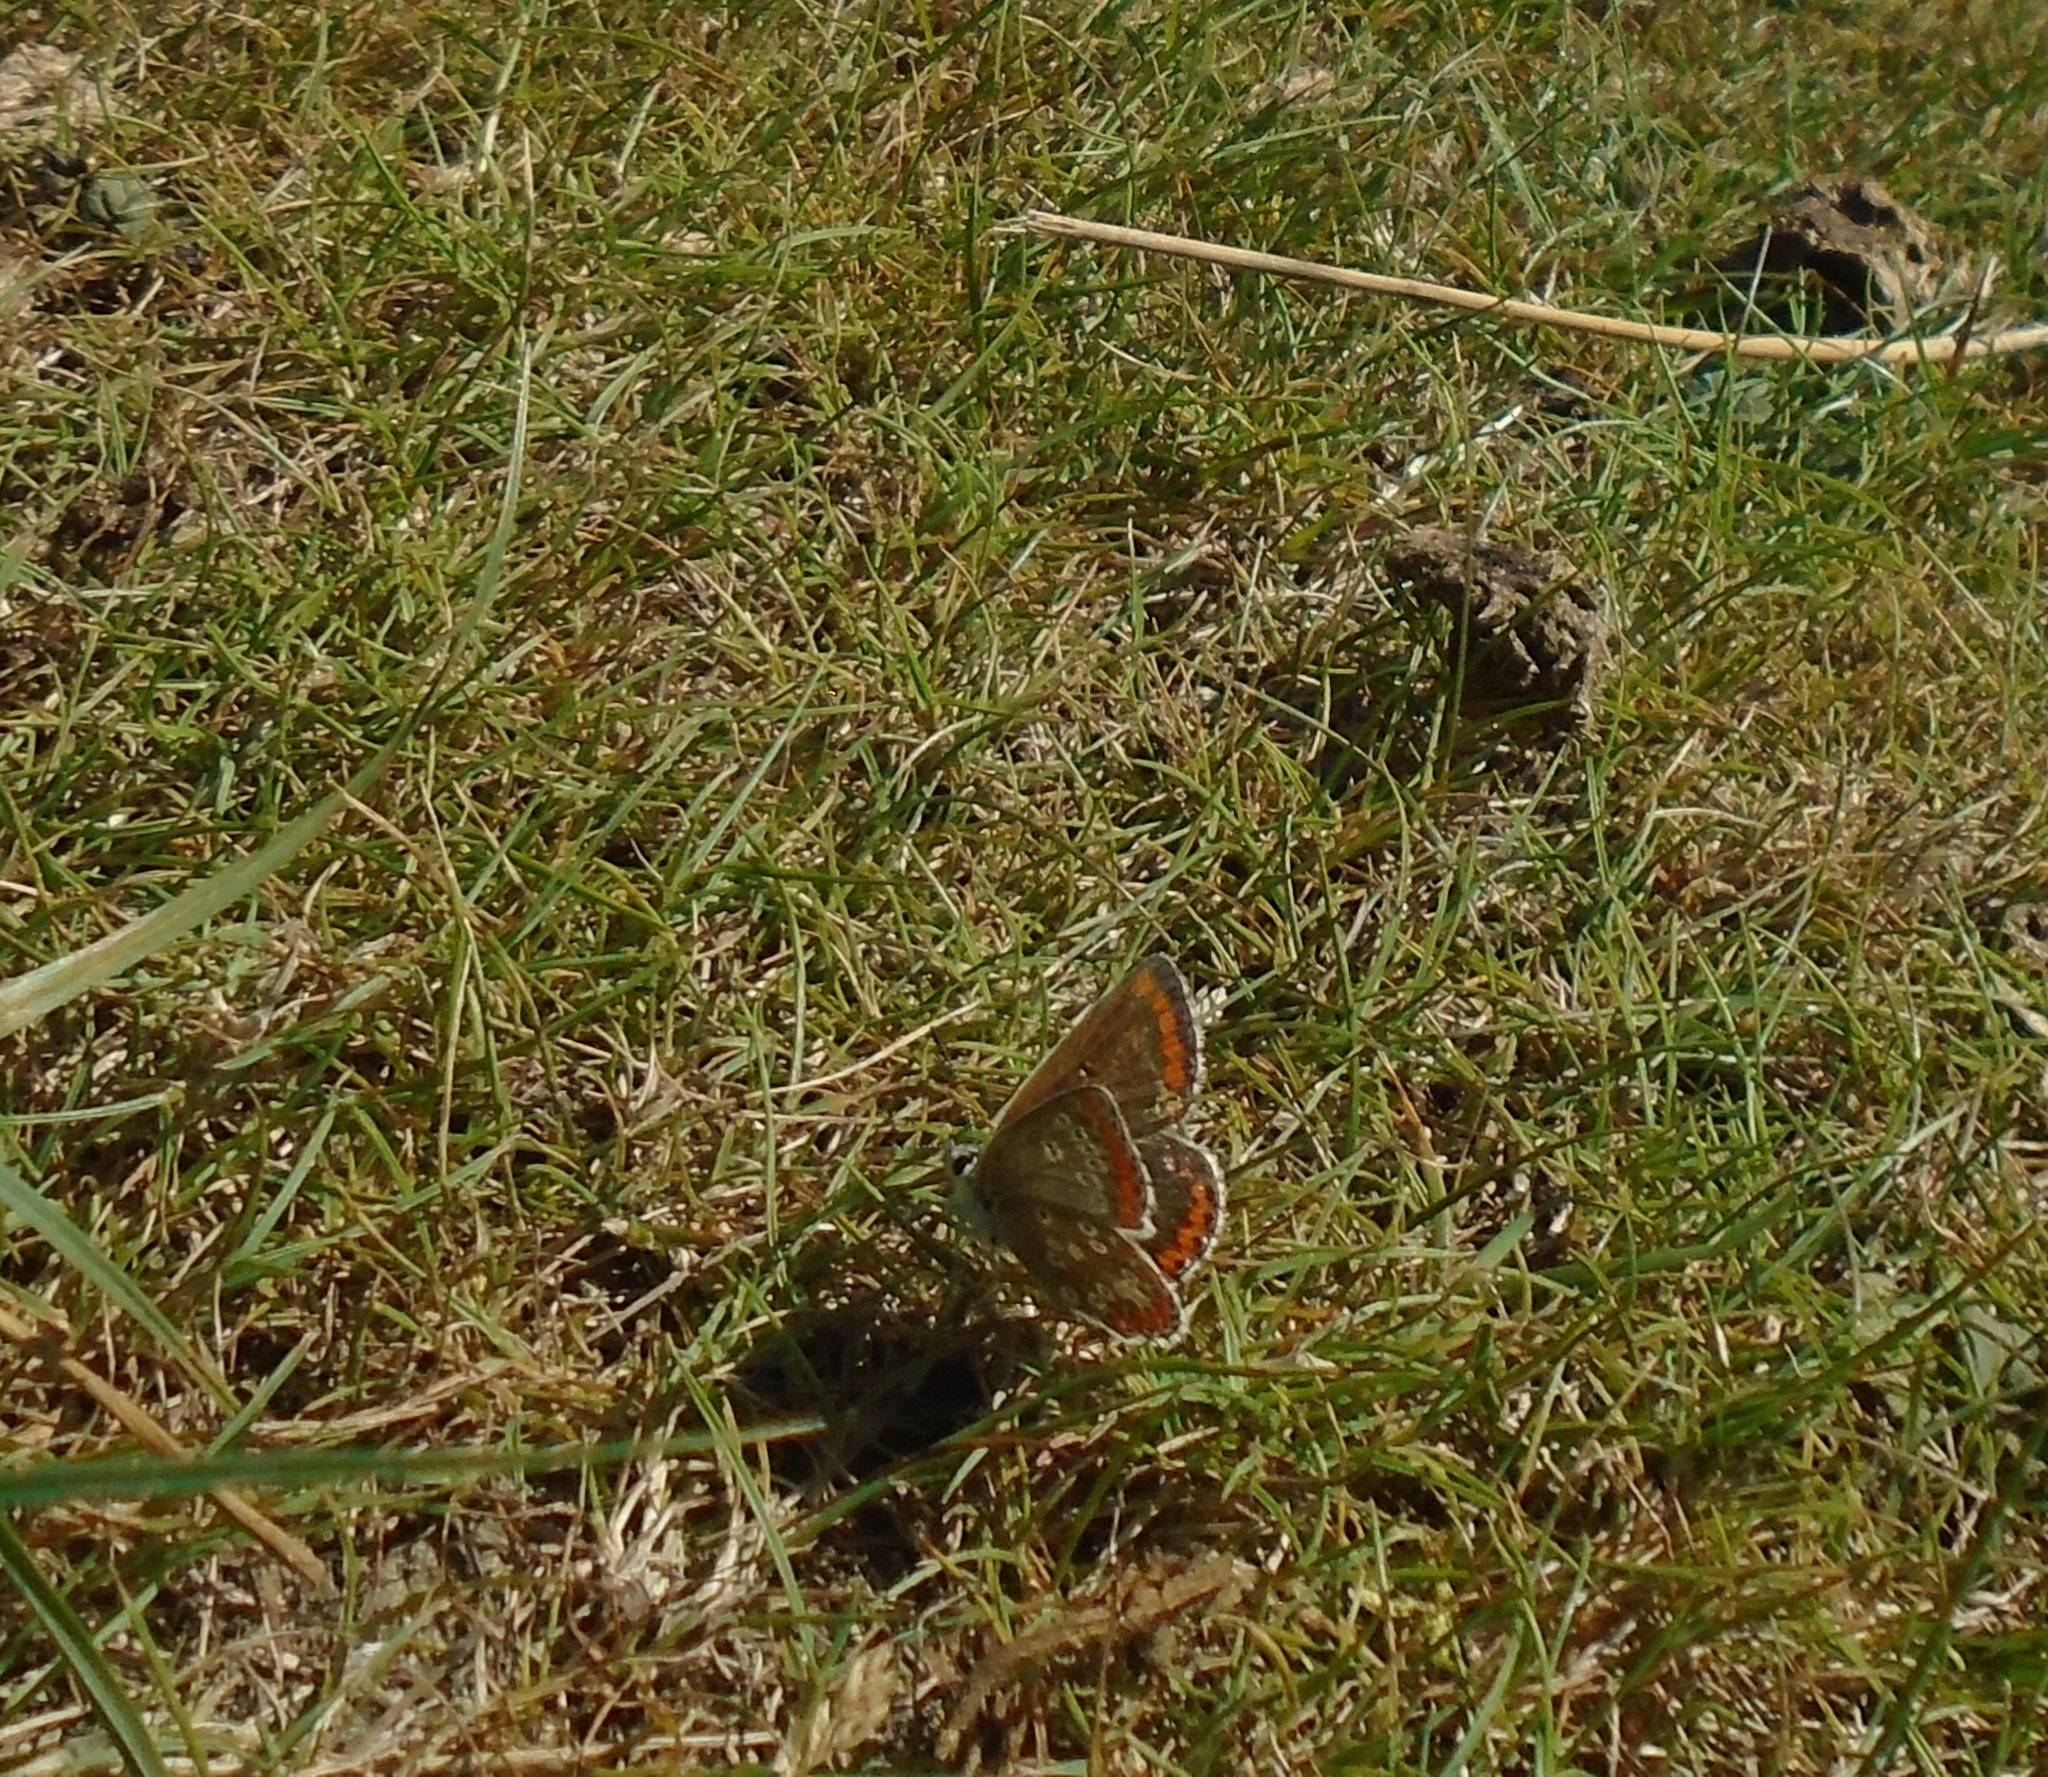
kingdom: Animalia
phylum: Arthropoda
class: Insecta
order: Lepidoptera
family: Lycaenidae
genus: Aricia
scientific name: Aricia agestis
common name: Brown argus
